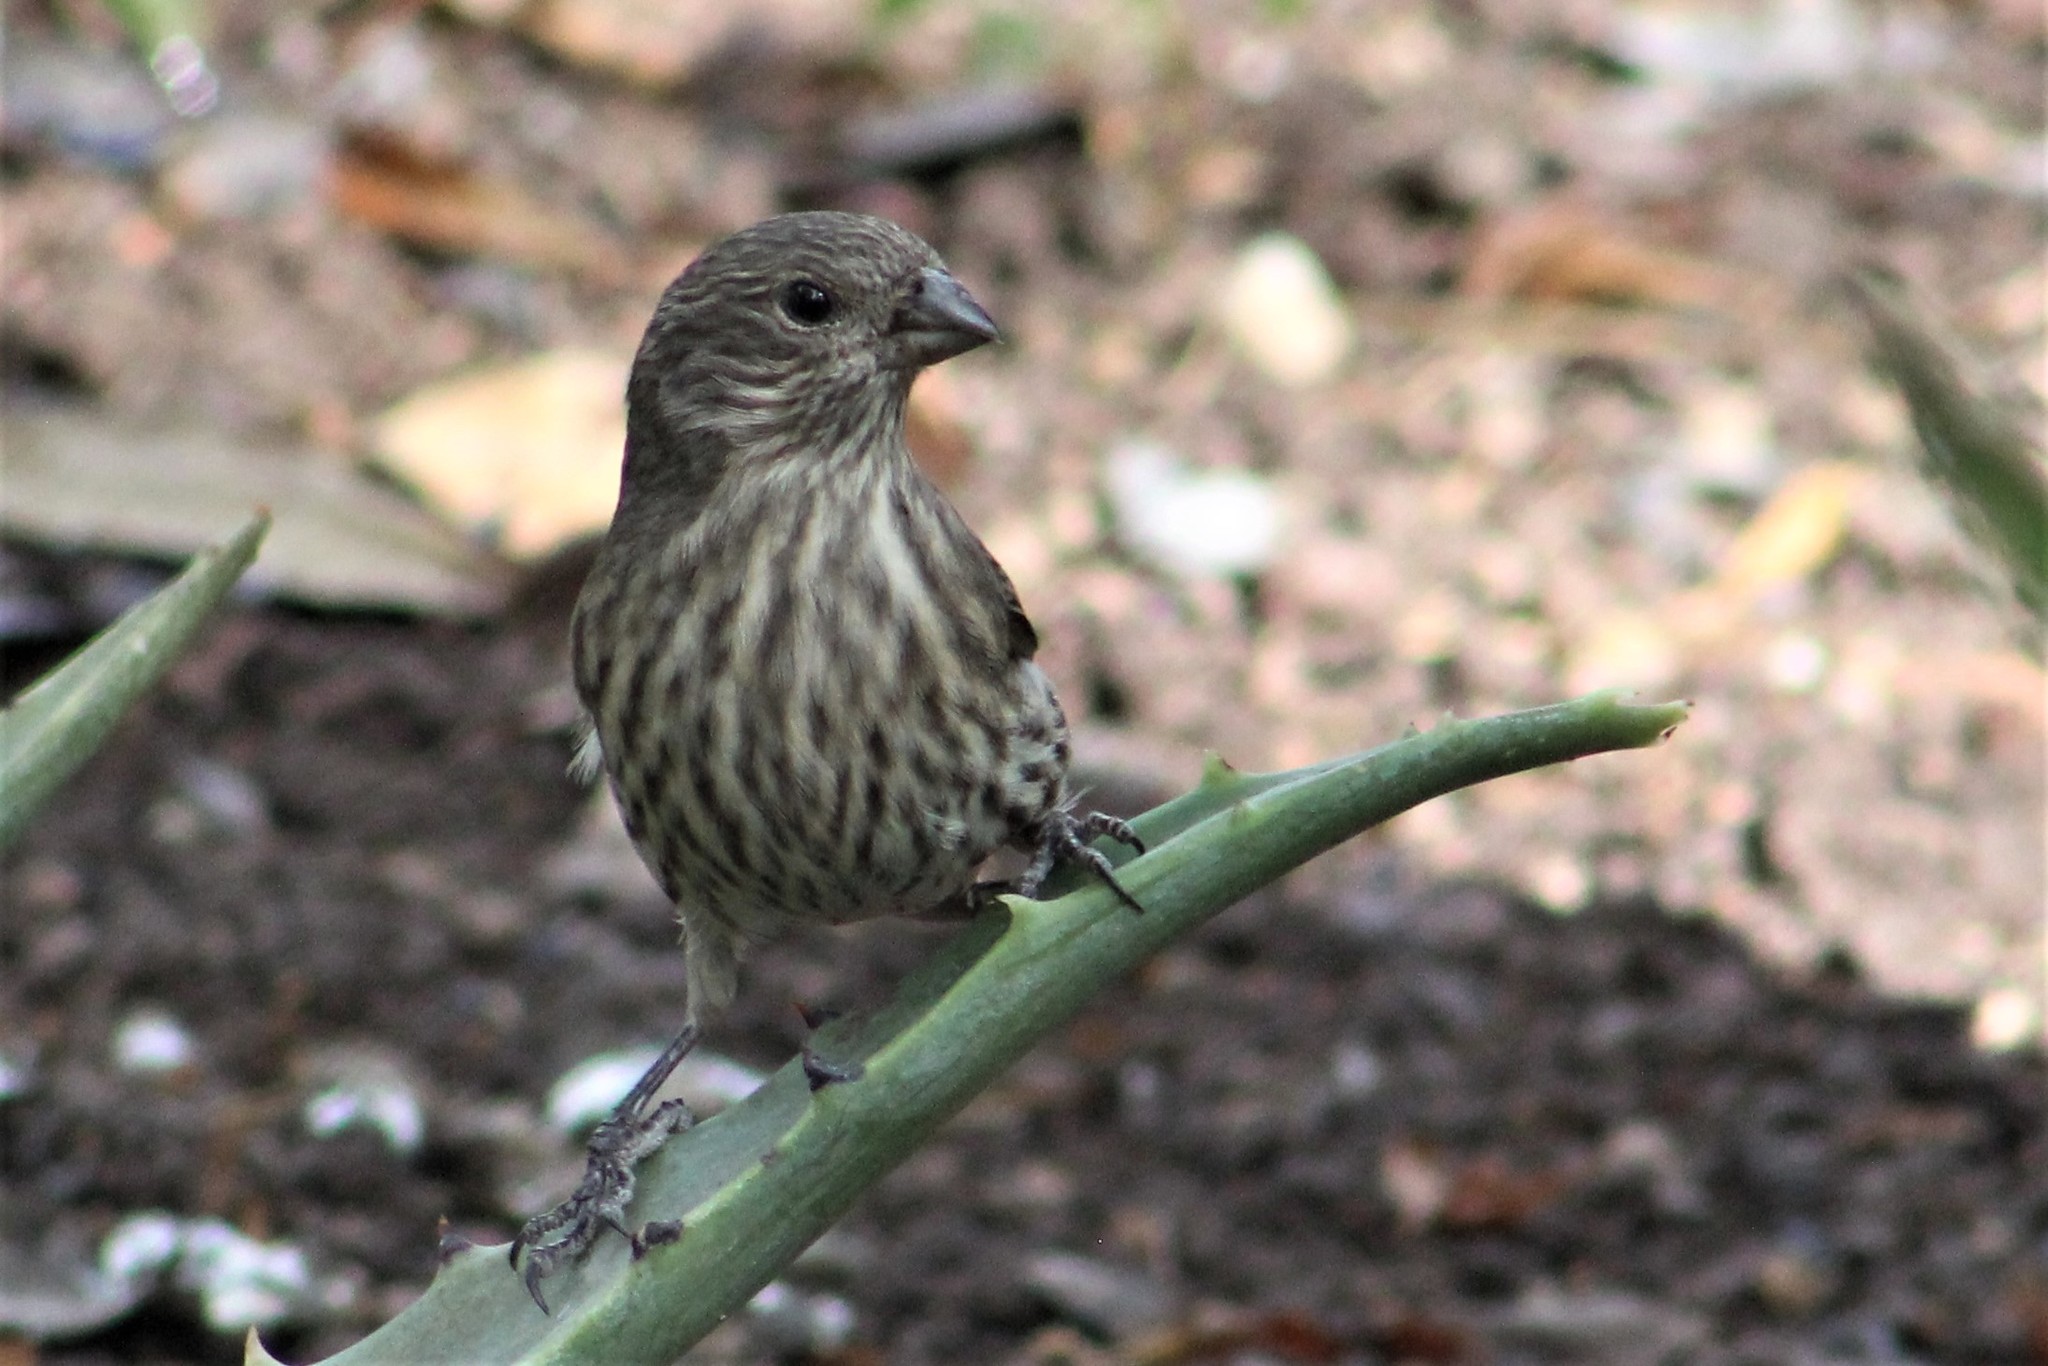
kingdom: Animalia
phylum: Chordata
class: Aves
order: Passeriformes
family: Fringillidae
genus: Haemorhous
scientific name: Haemorhous mexicanus
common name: House finch
